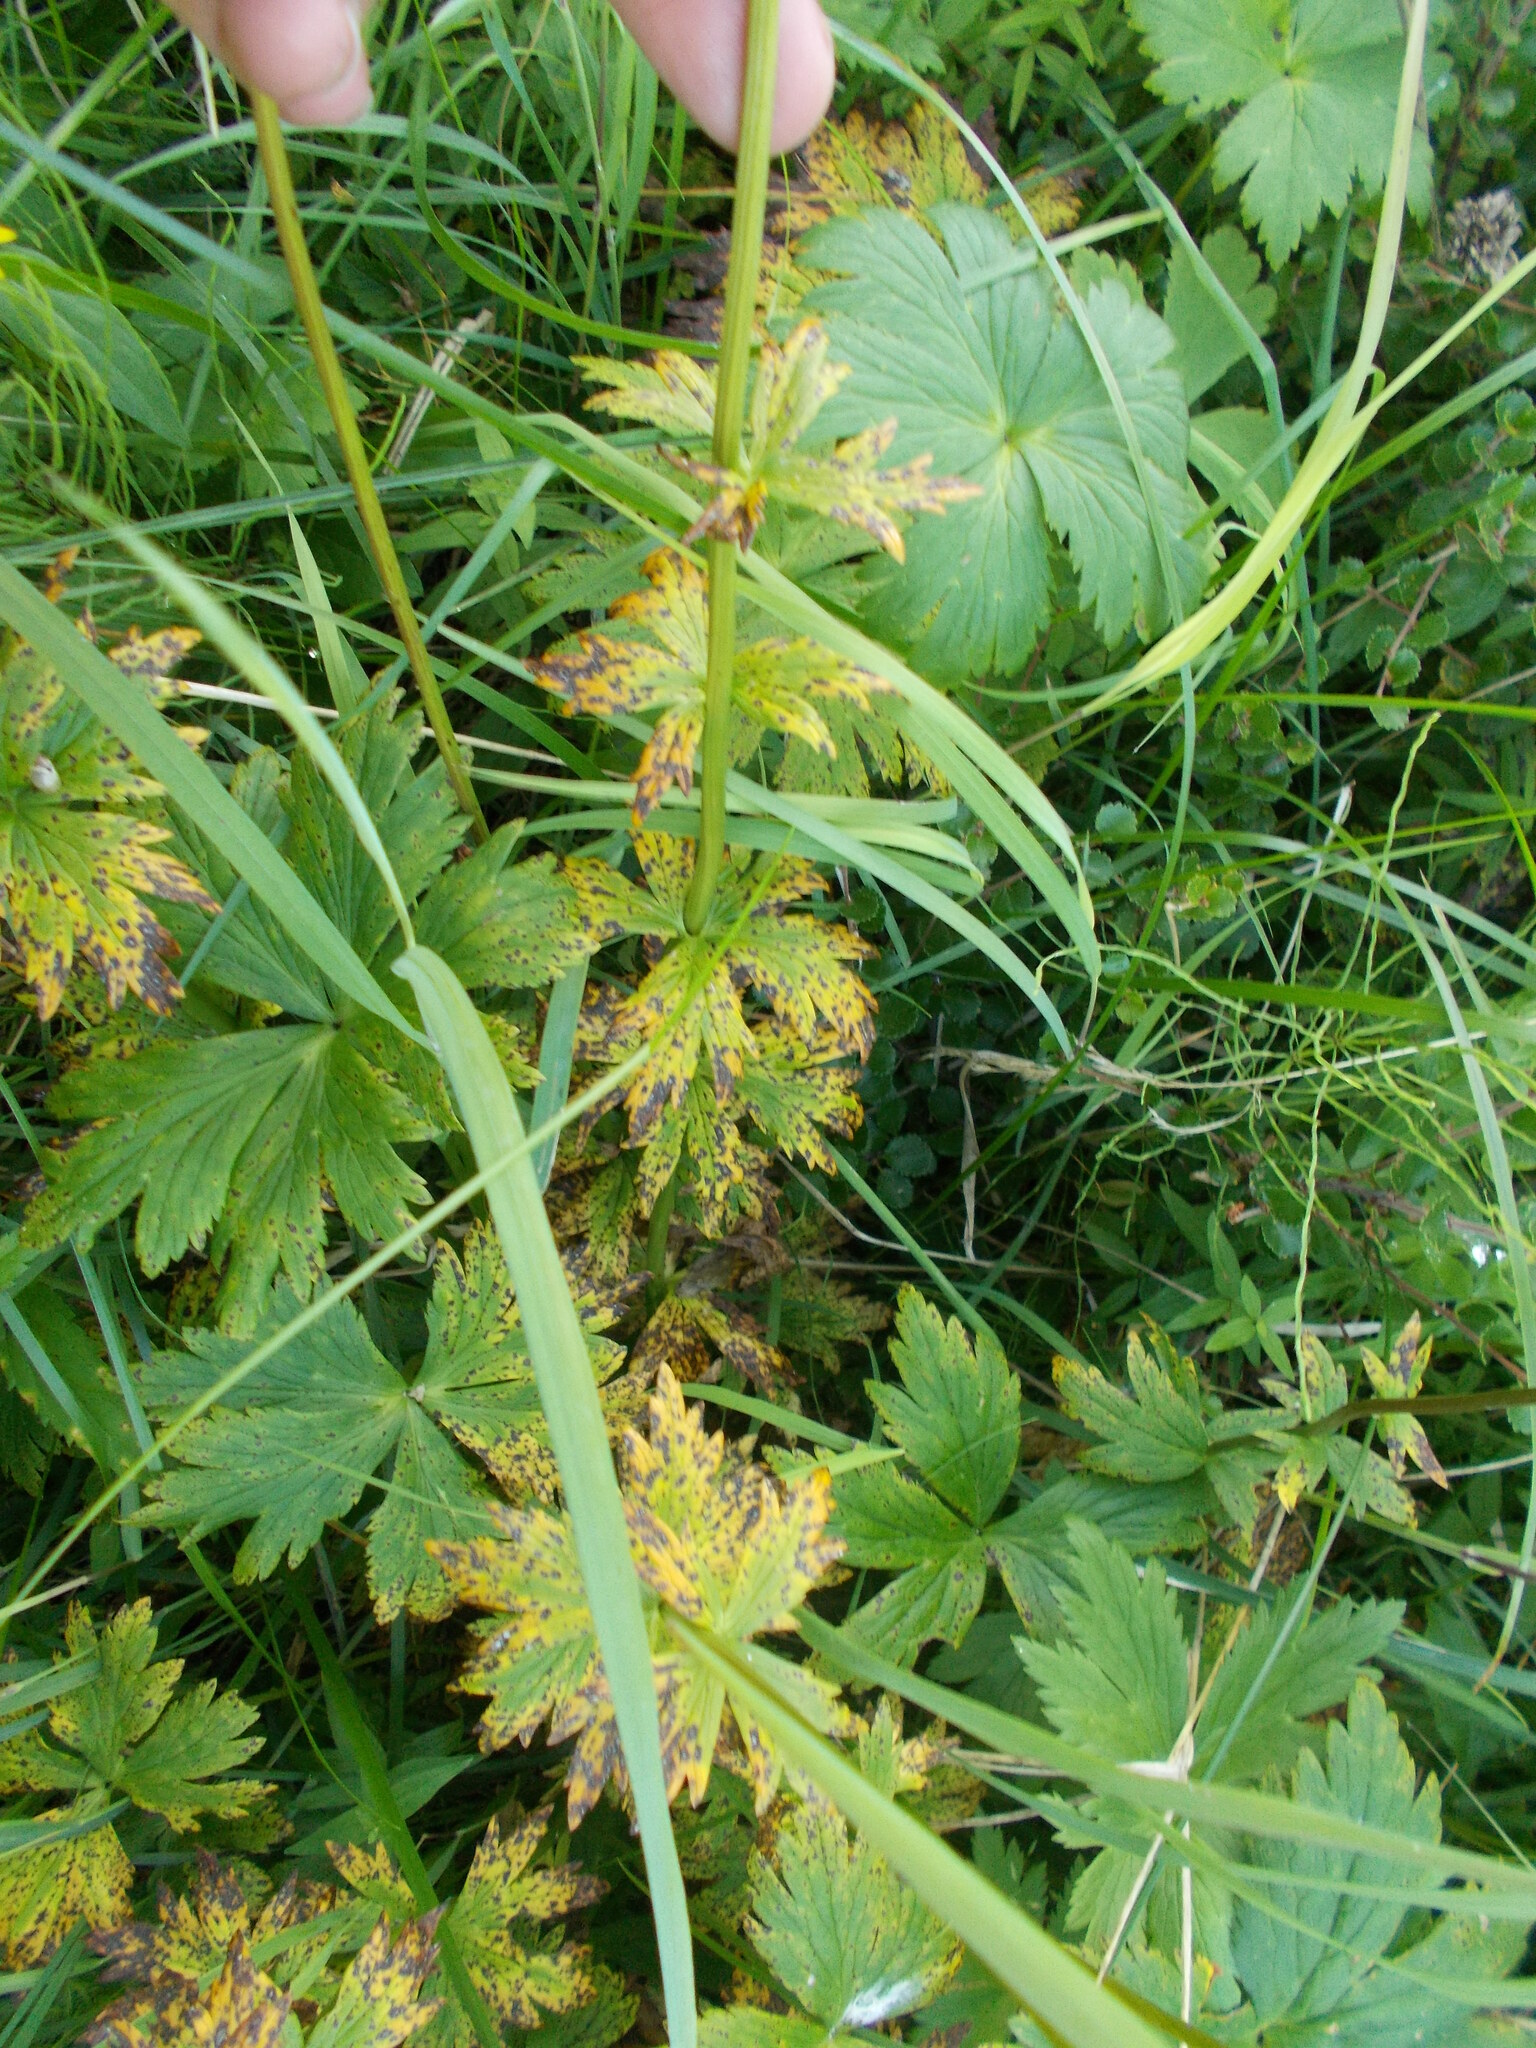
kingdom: Plantae
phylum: Tracheophyta
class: Magnoliopsida
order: Ranunculales
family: Ranunculaceae
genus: Trollius
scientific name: Trollius apertus
